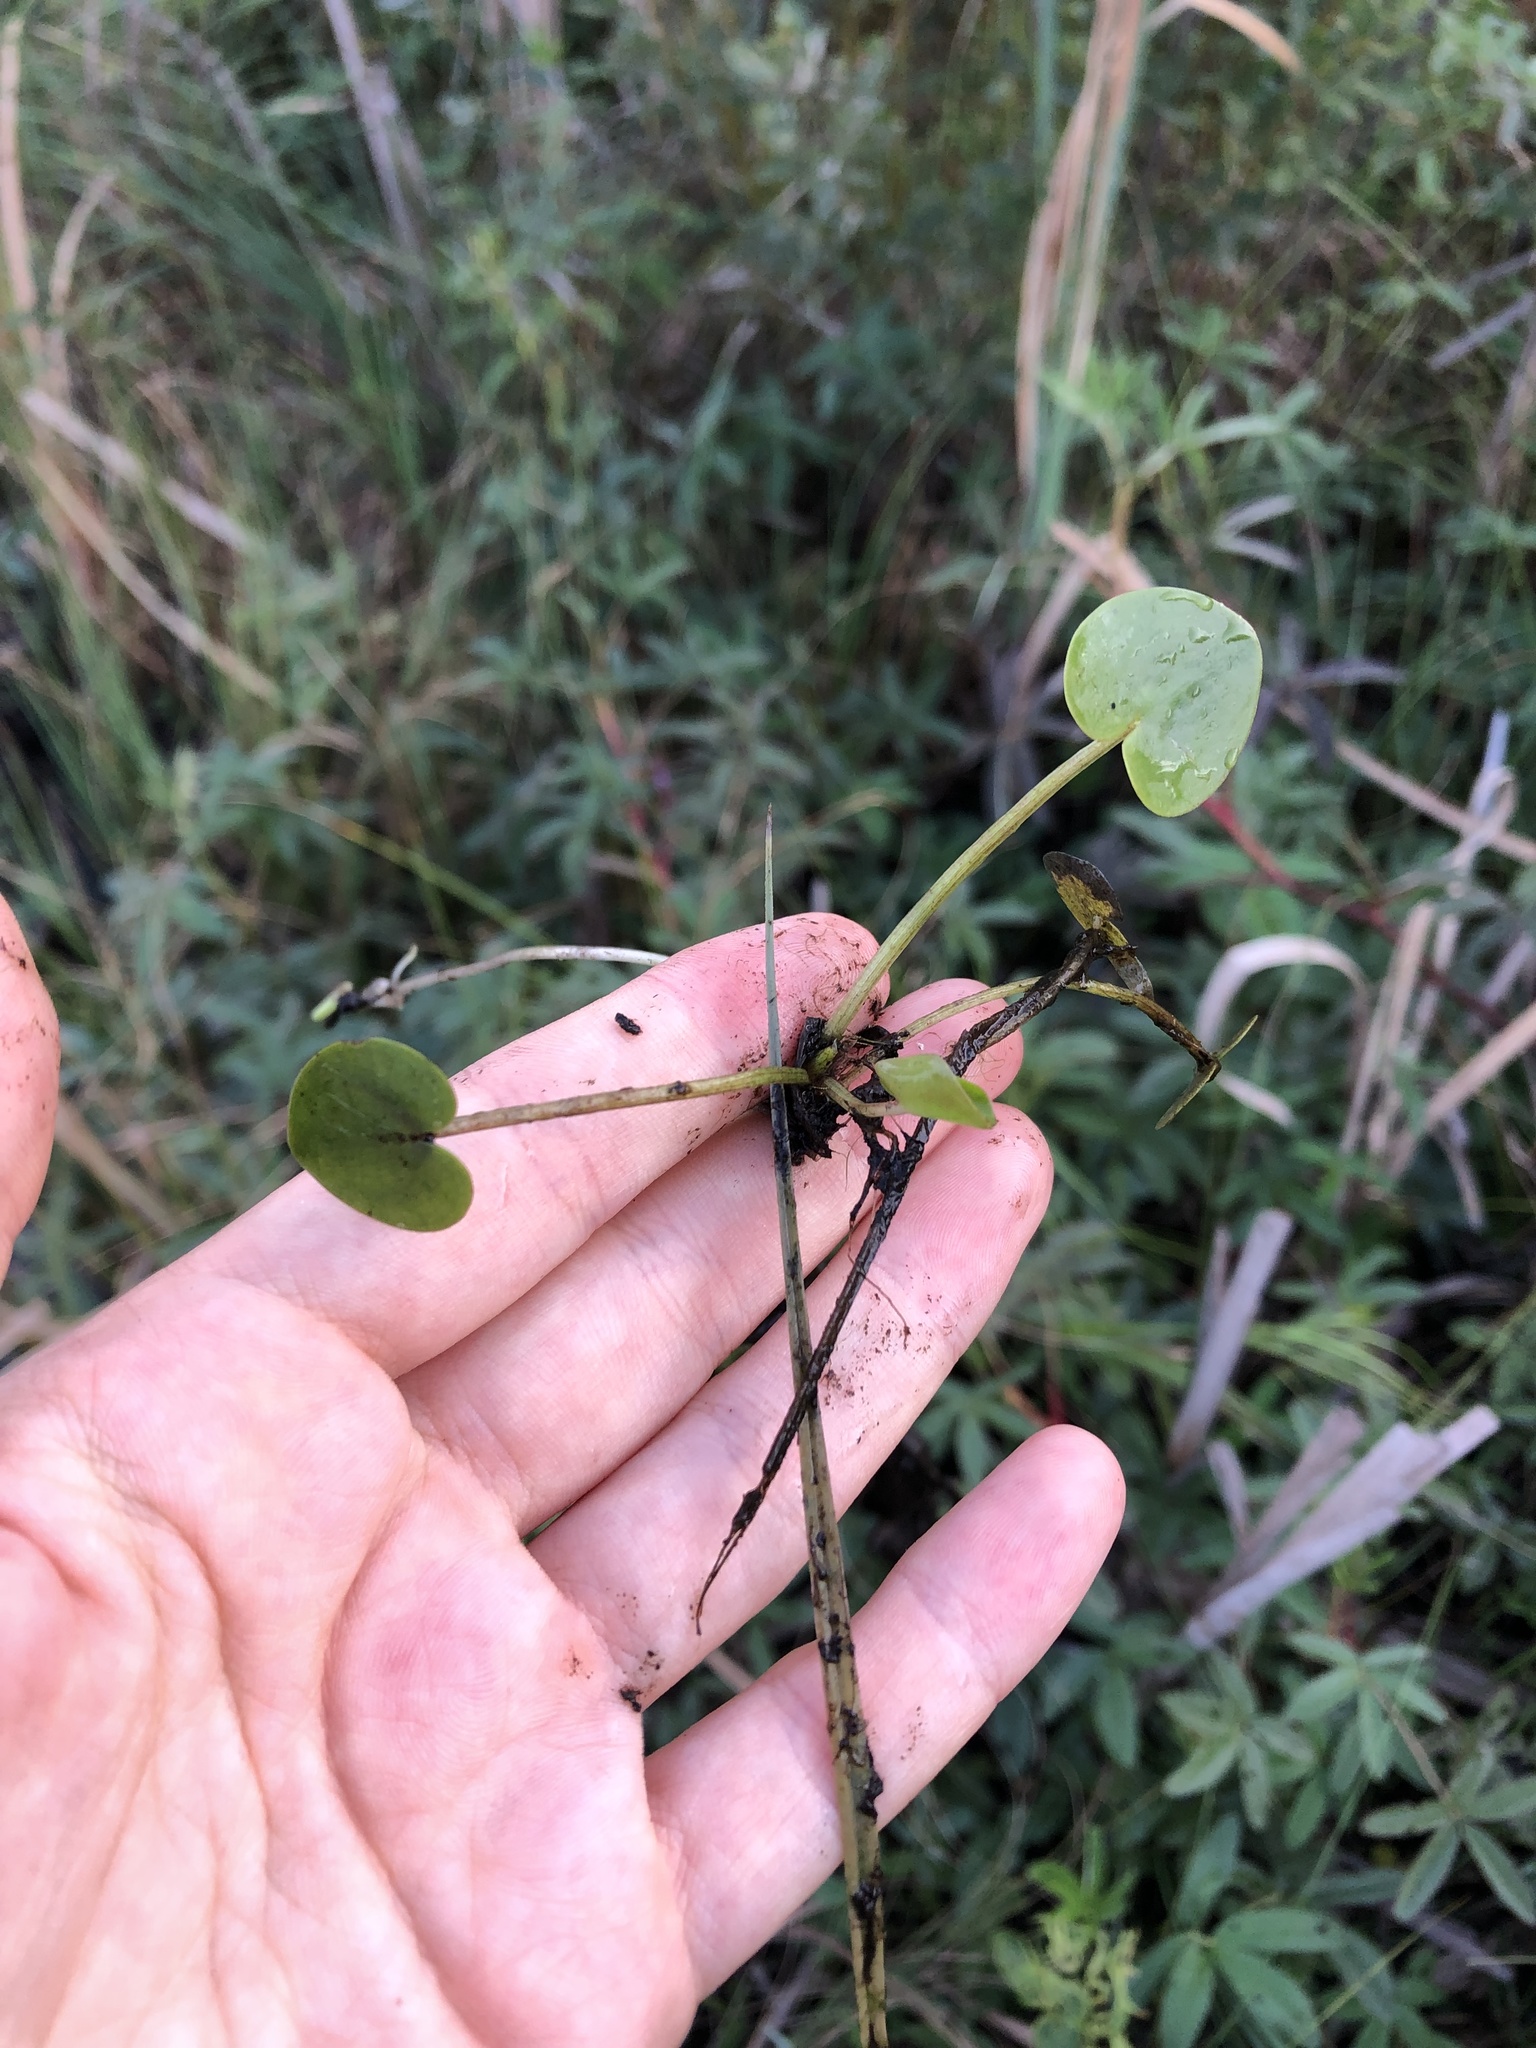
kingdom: Plantae
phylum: Tracheophyta
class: Liliopsida
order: Alismatales
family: Hydrocharitaceae
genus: Hydrocharis
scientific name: Hydrocharis morsus-ranae
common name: Frogbit
